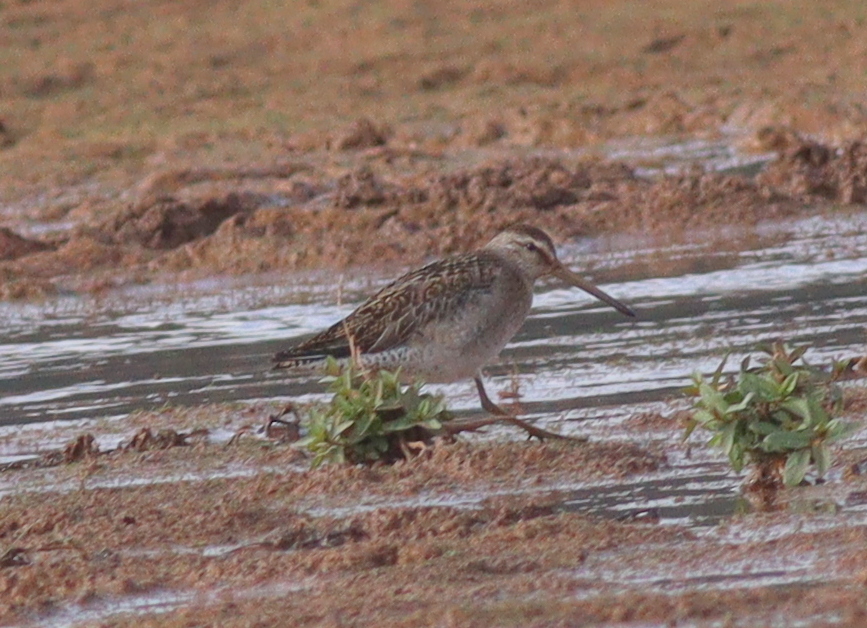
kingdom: Animalia
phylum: Chordata
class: Aves
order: Charadriiformes
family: Scolopacidae
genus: Limnodromus
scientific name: Limnodromus griseus
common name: Short-billed dowitcher
